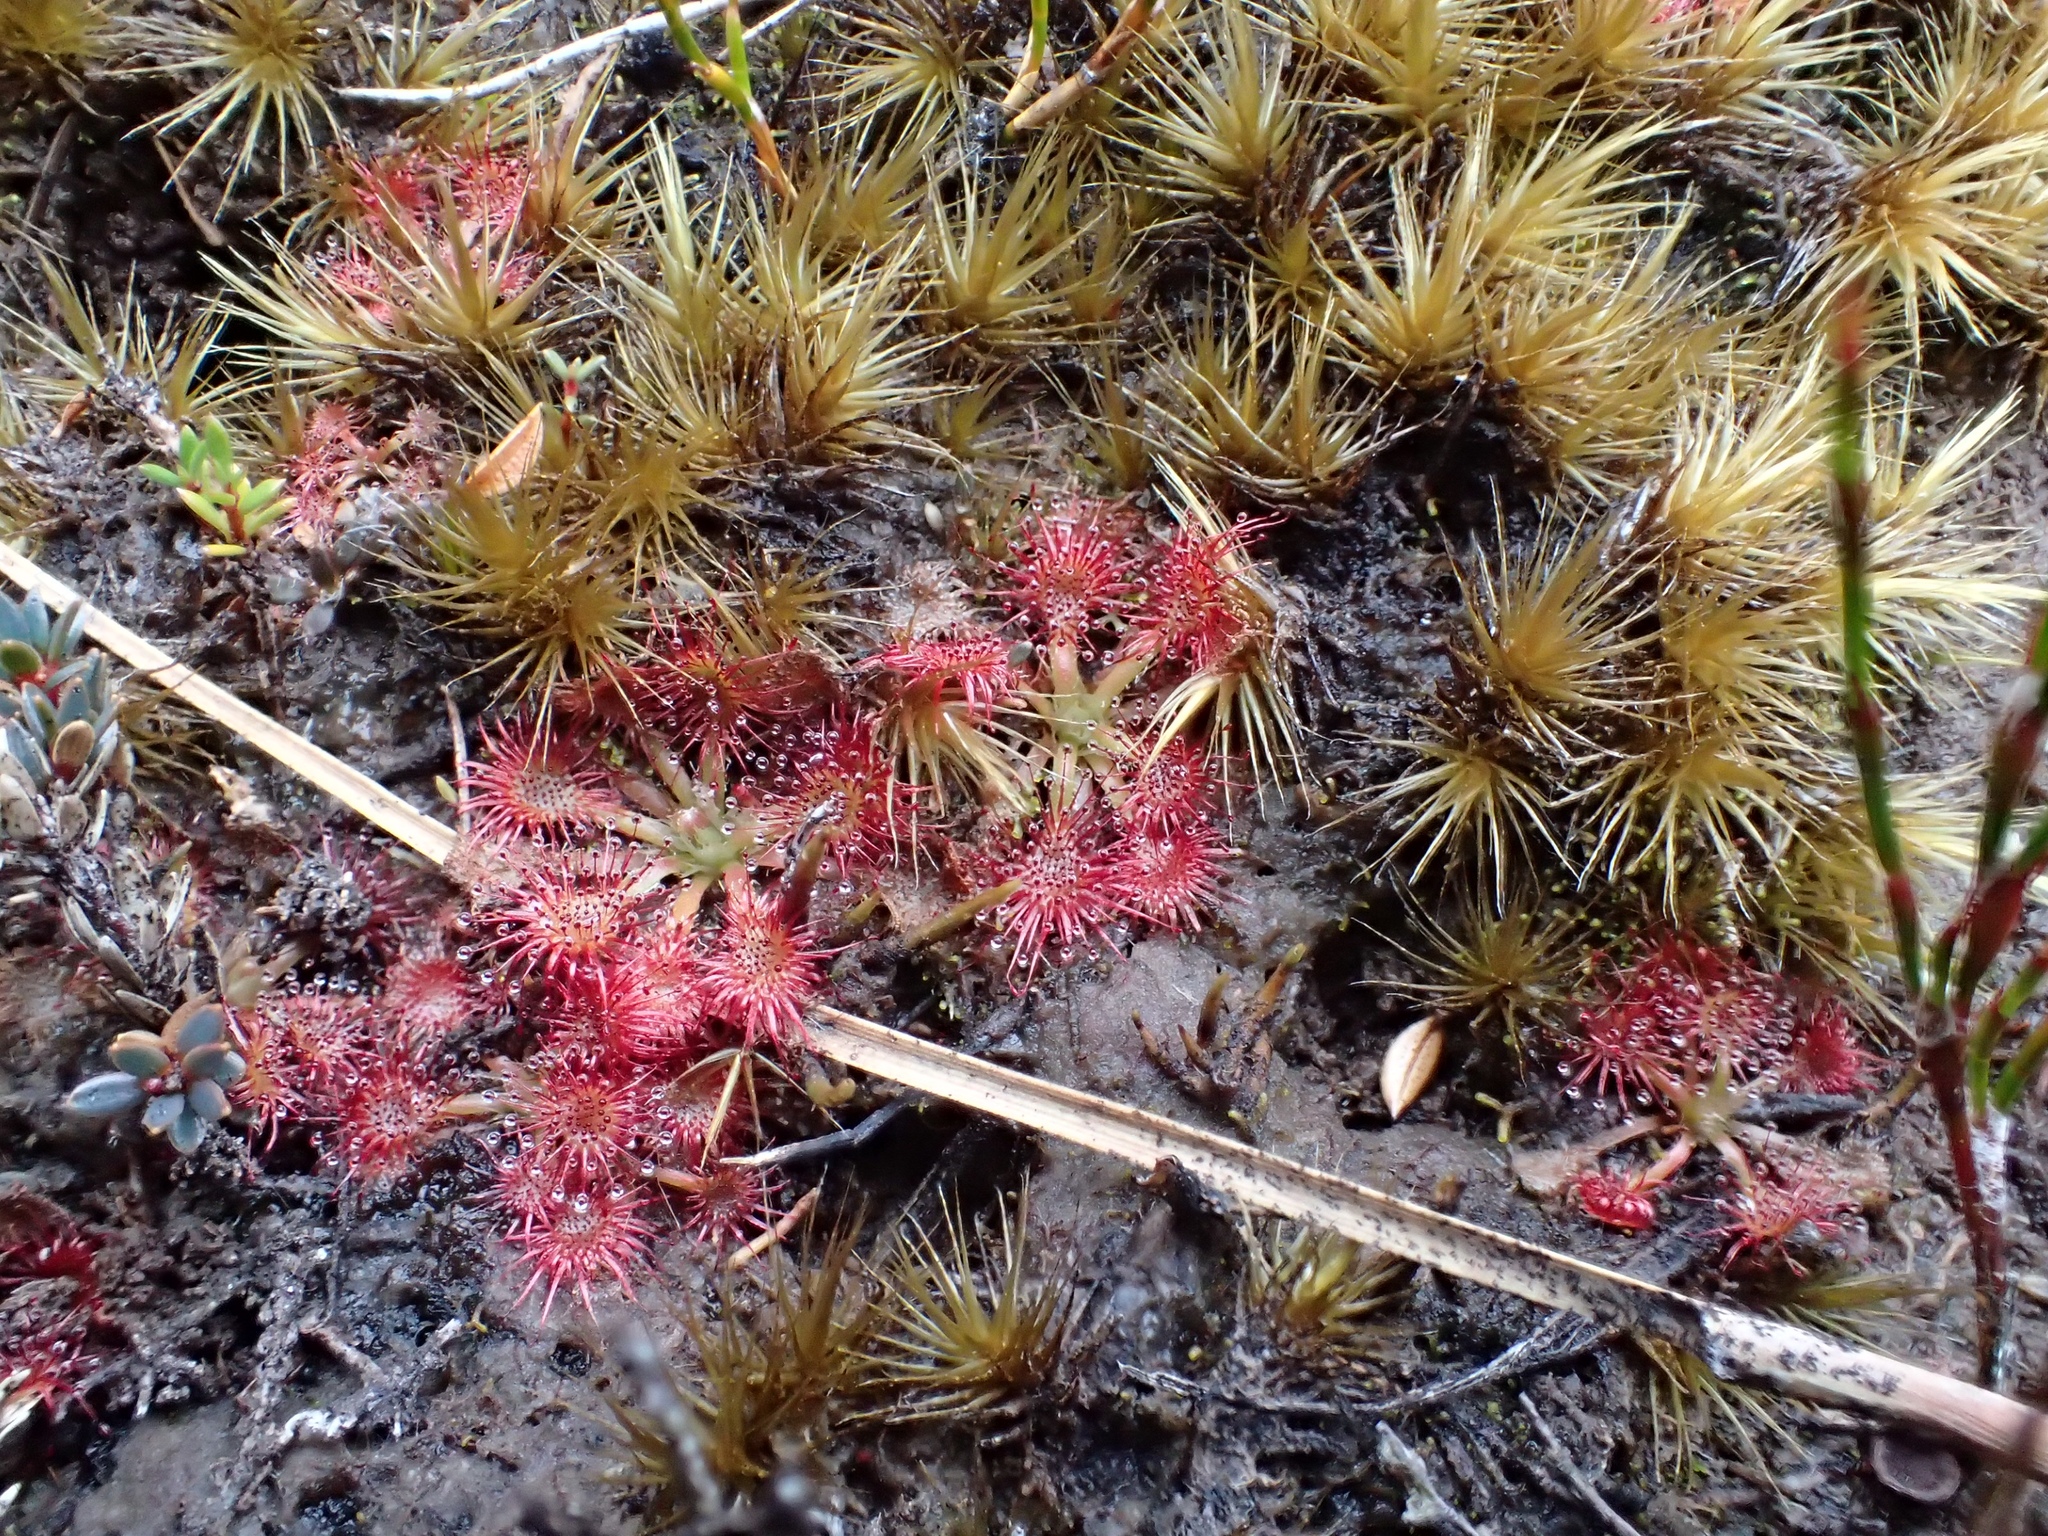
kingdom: Plantae
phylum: Tracheophyta
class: Magnoliopsida
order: Caryophyllales
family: Droseraceae
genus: Drosera
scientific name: Drosera spatulata
